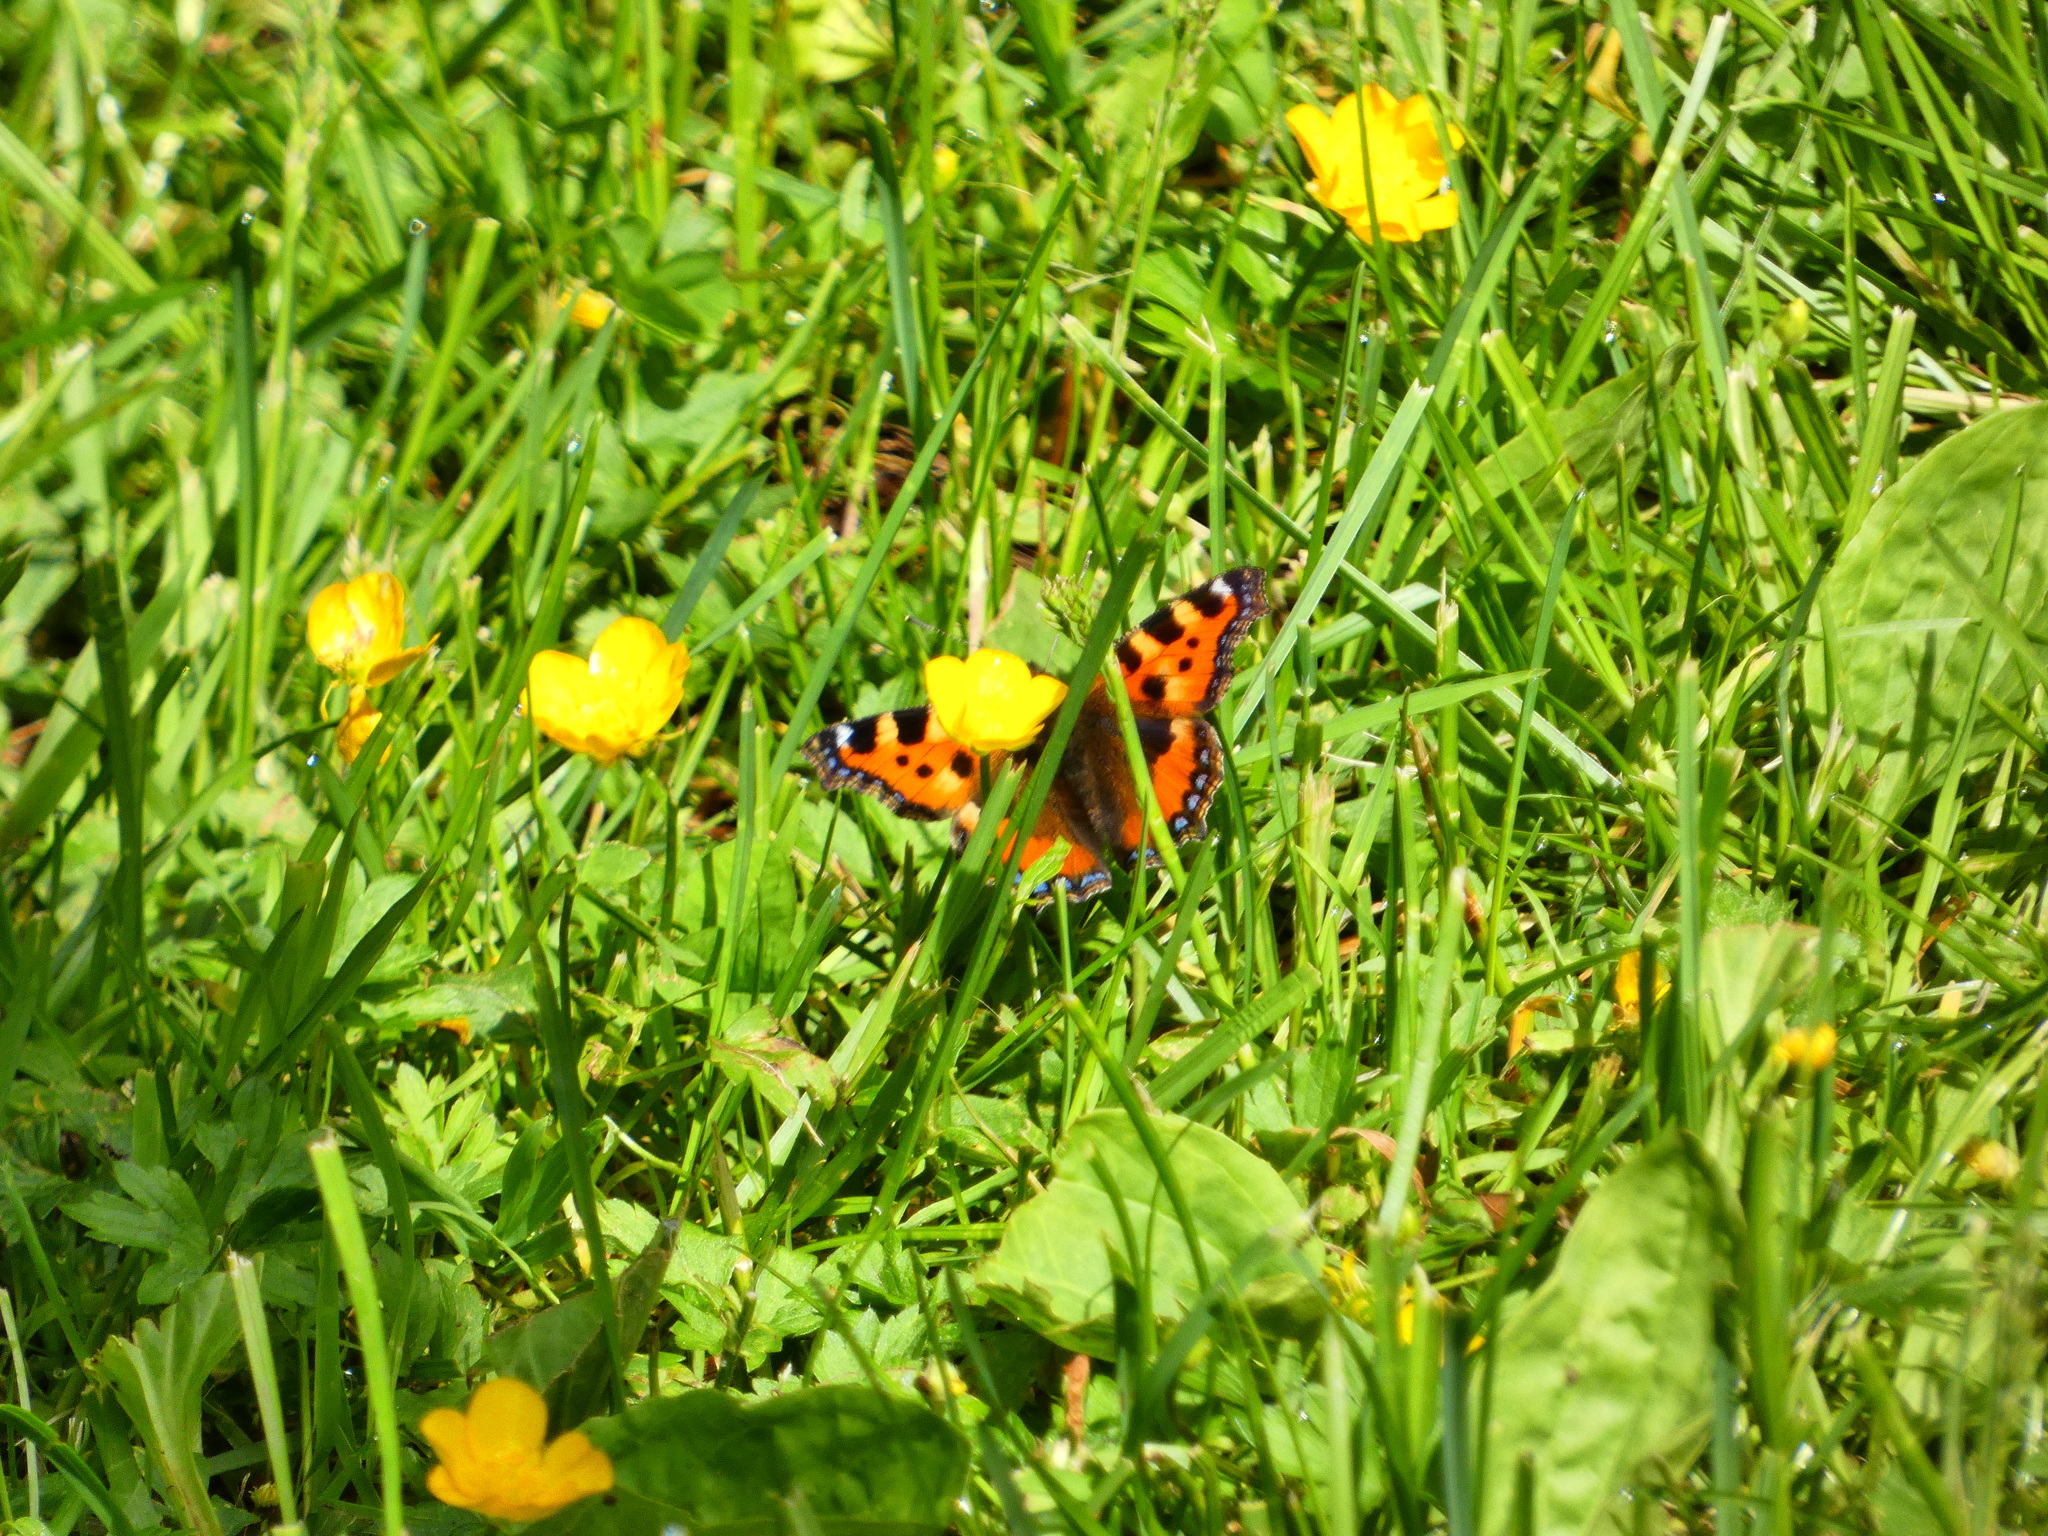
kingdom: Animalia
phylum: Arthropoda
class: Insecta
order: Lepidoptera
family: Nymphalidae
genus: Aglais
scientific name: Aglais urticae
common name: Small tortoiseshell
